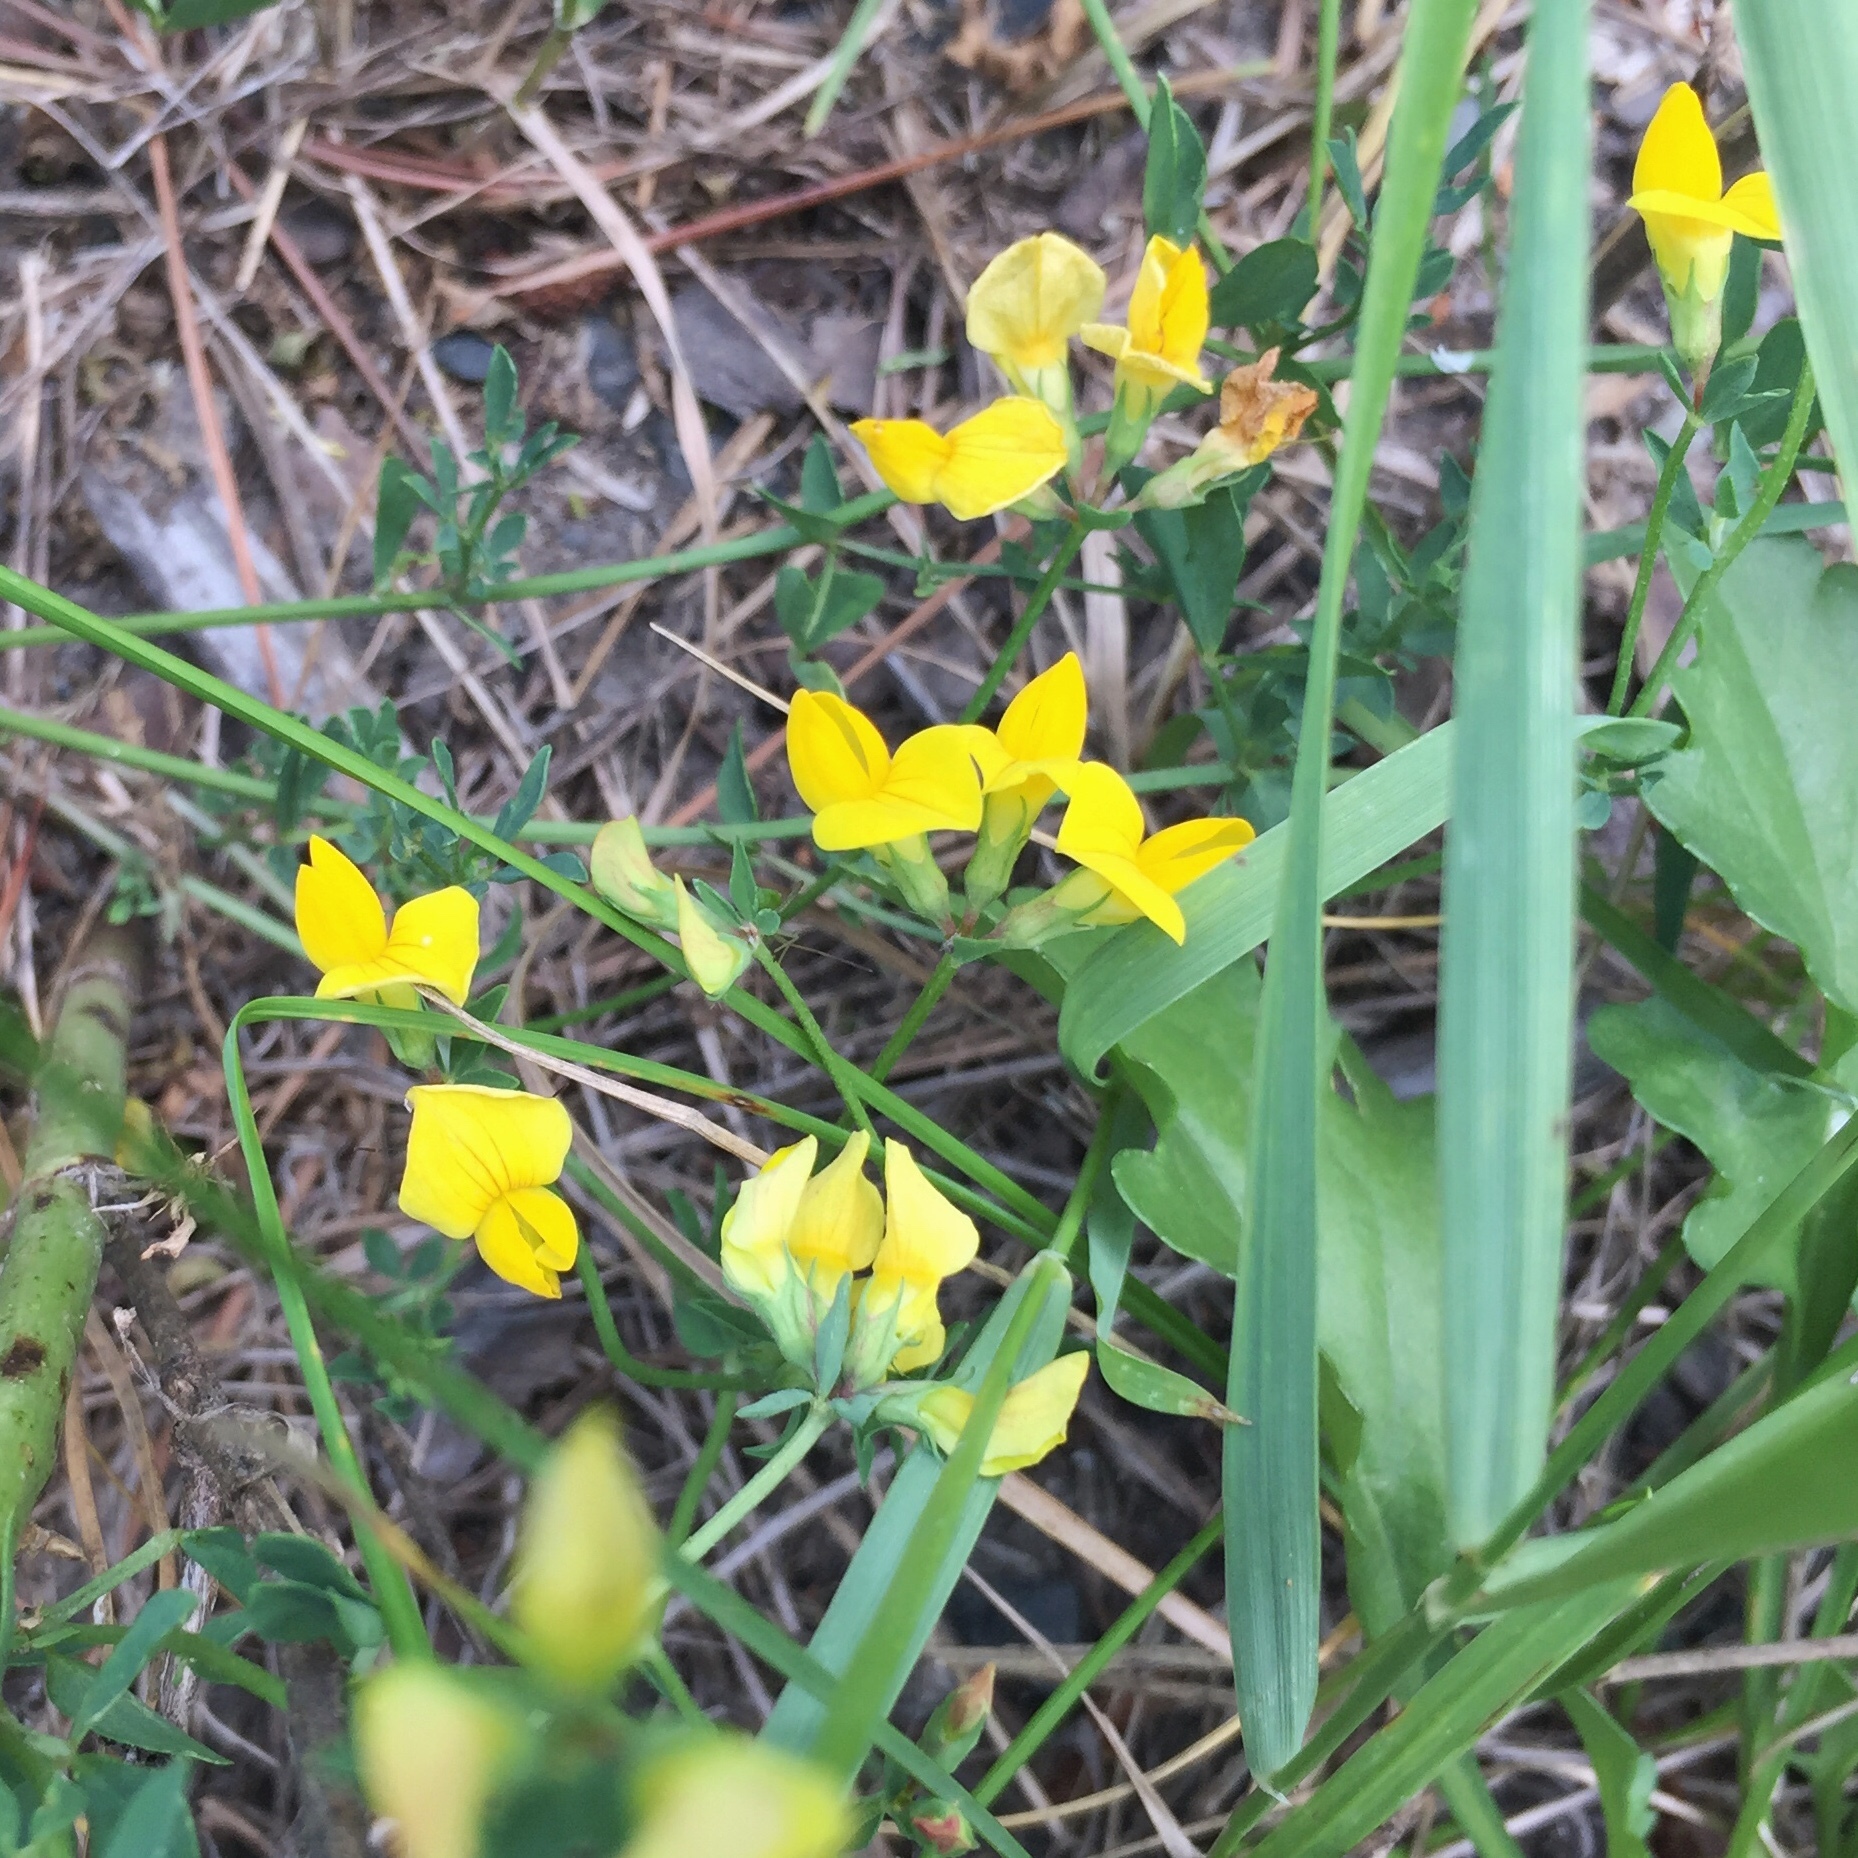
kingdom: Plantae
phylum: Tracheophyta
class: Magnoliopsida
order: Fabales
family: Fabaceae
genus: Lotus
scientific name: Lotus corniculatus
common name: Common bird's-foot-trefoil
